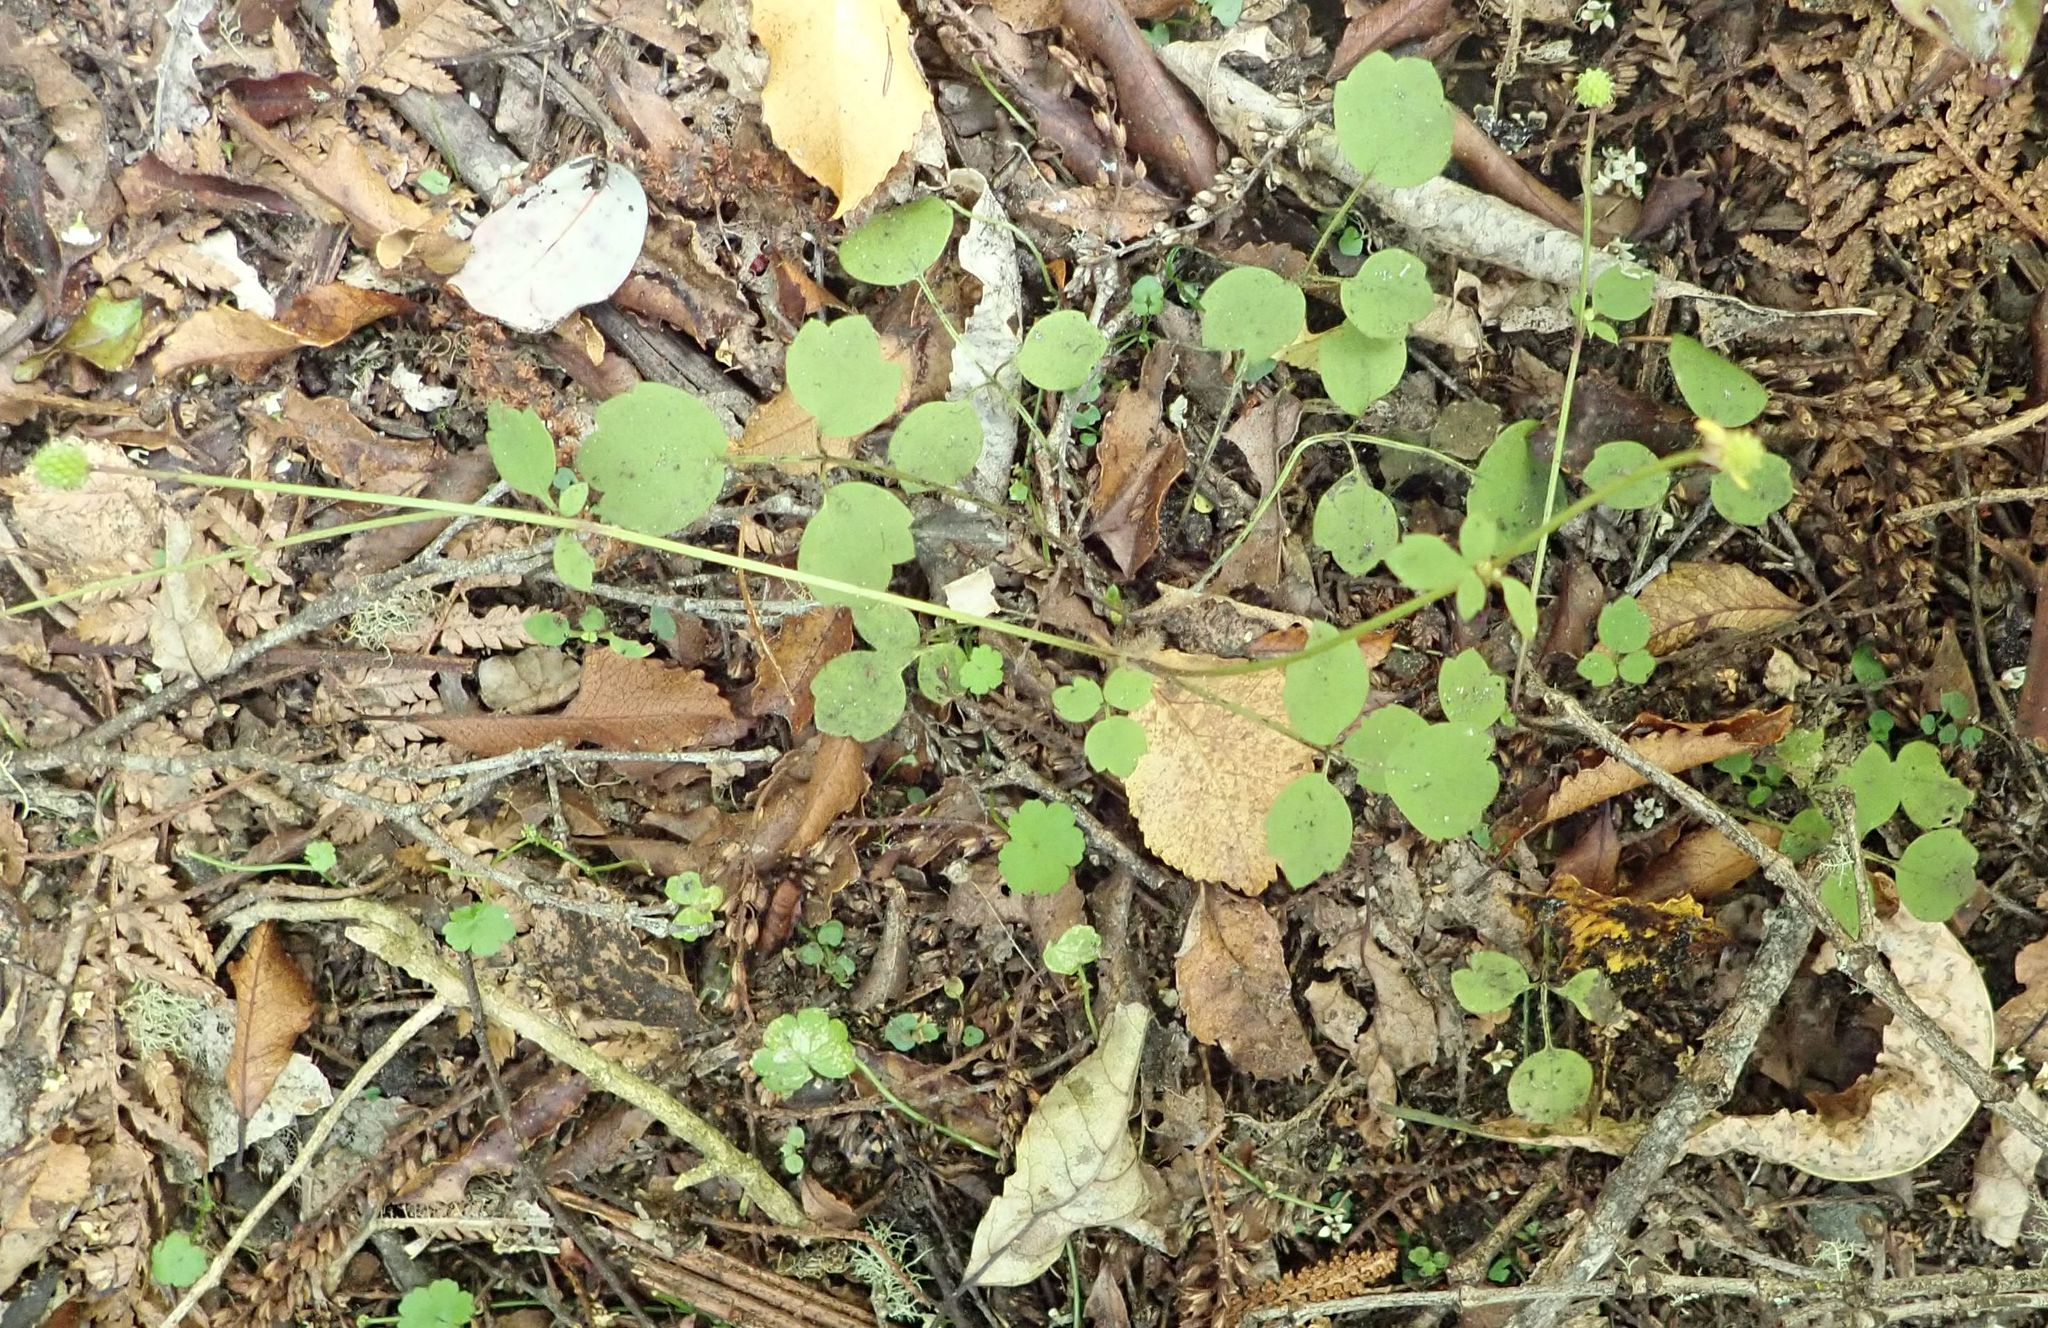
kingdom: Plantae
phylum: Tracheophyta
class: Magnoliopsida
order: Ranunculales
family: Ranunculaceae
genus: Ranunculus
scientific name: Ranunculus reflexus
